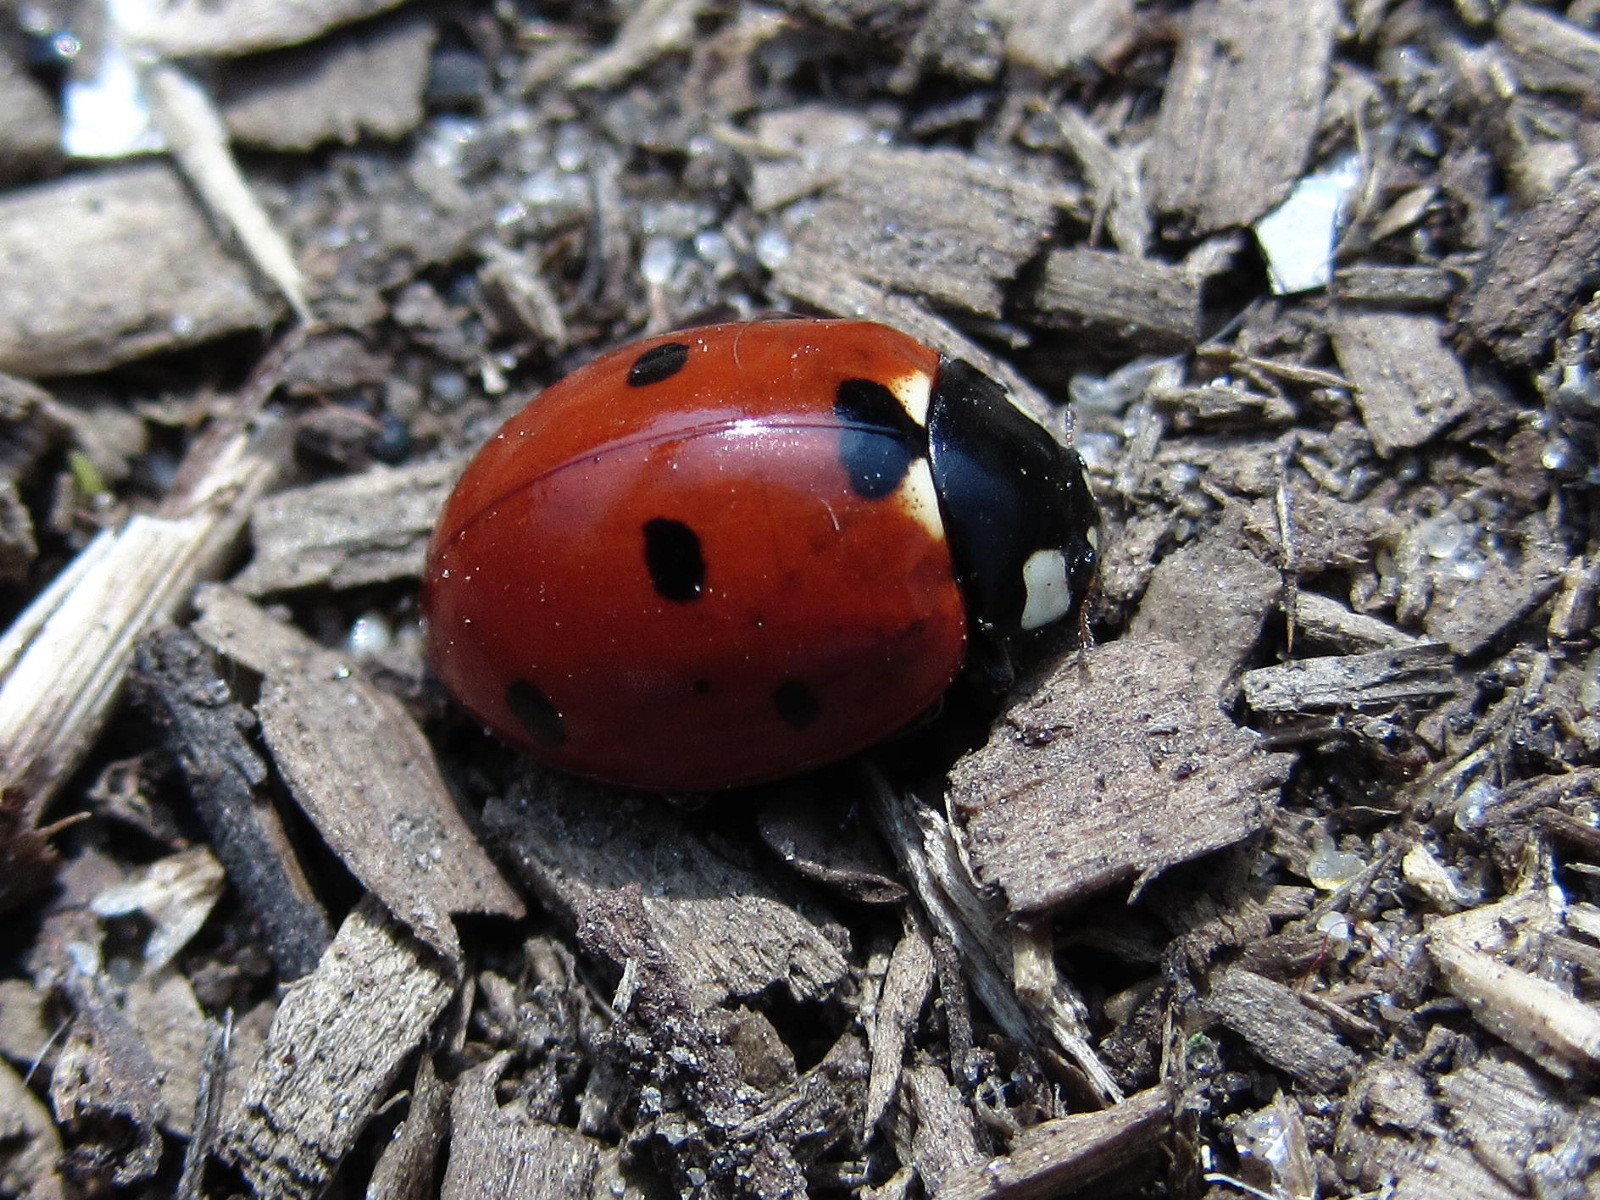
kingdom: Animalia
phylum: Arthropoda
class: Insecta
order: Coleoptera
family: Coccinellidae
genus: Coccinella
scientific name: Coccinella septempunctata
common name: Sevenspotted lady beetle
